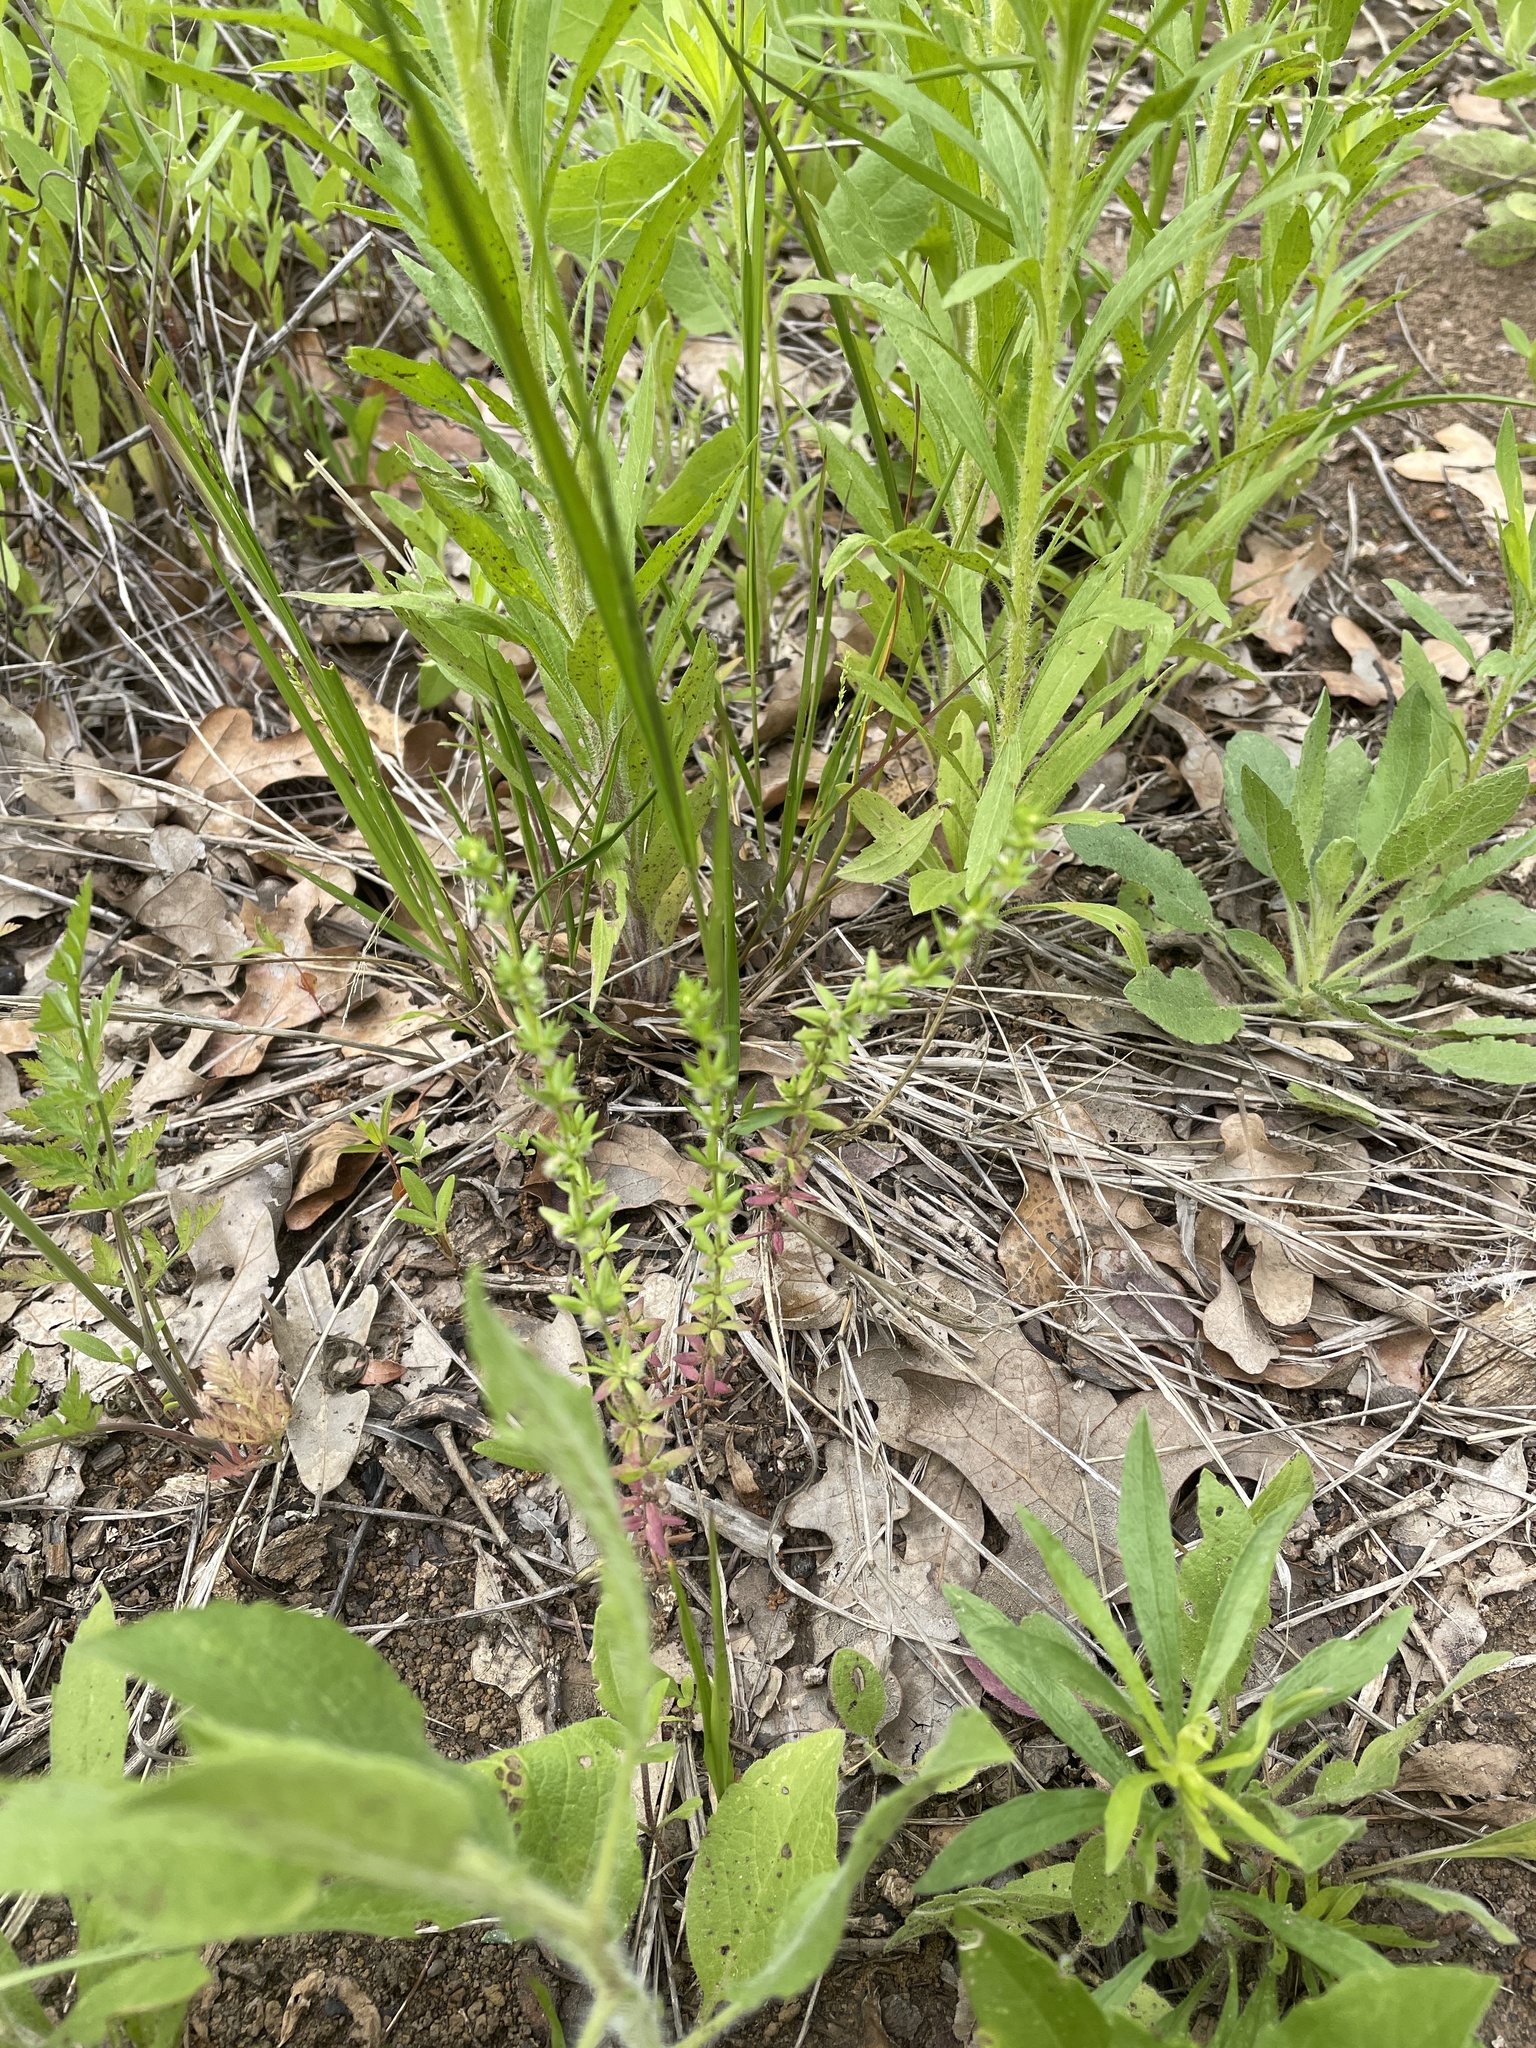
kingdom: Plantae
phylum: Tracheophyta
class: Magnoliopsida
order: Gentianales
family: Rubiaceae
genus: Galium
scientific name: Galium virgatum
